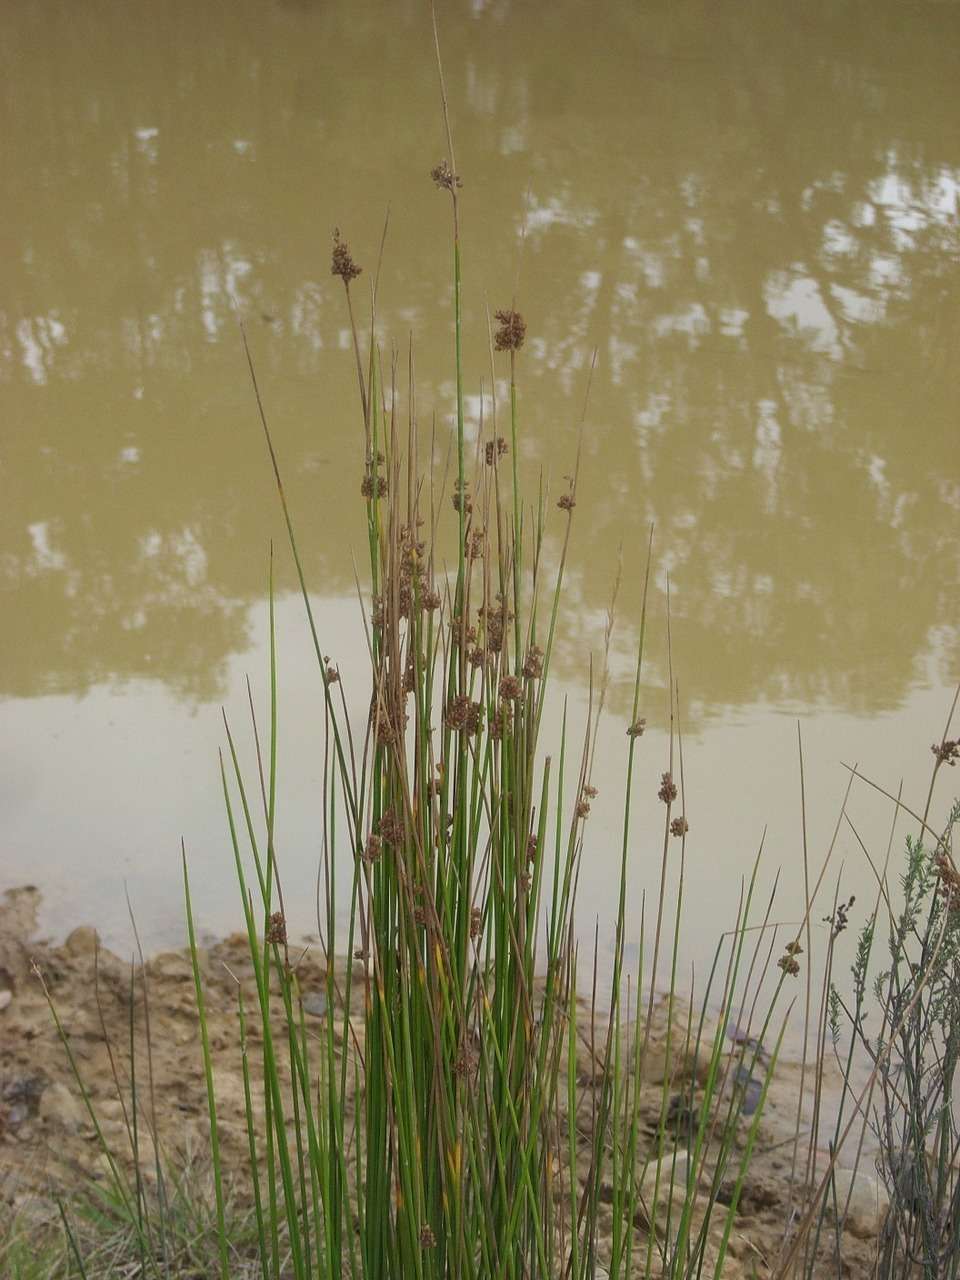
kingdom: Plantae
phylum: Tracheophyta
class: Liliopsida
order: Poales
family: Juncaceae
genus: Juncus
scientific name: Juncus gregiflorus
